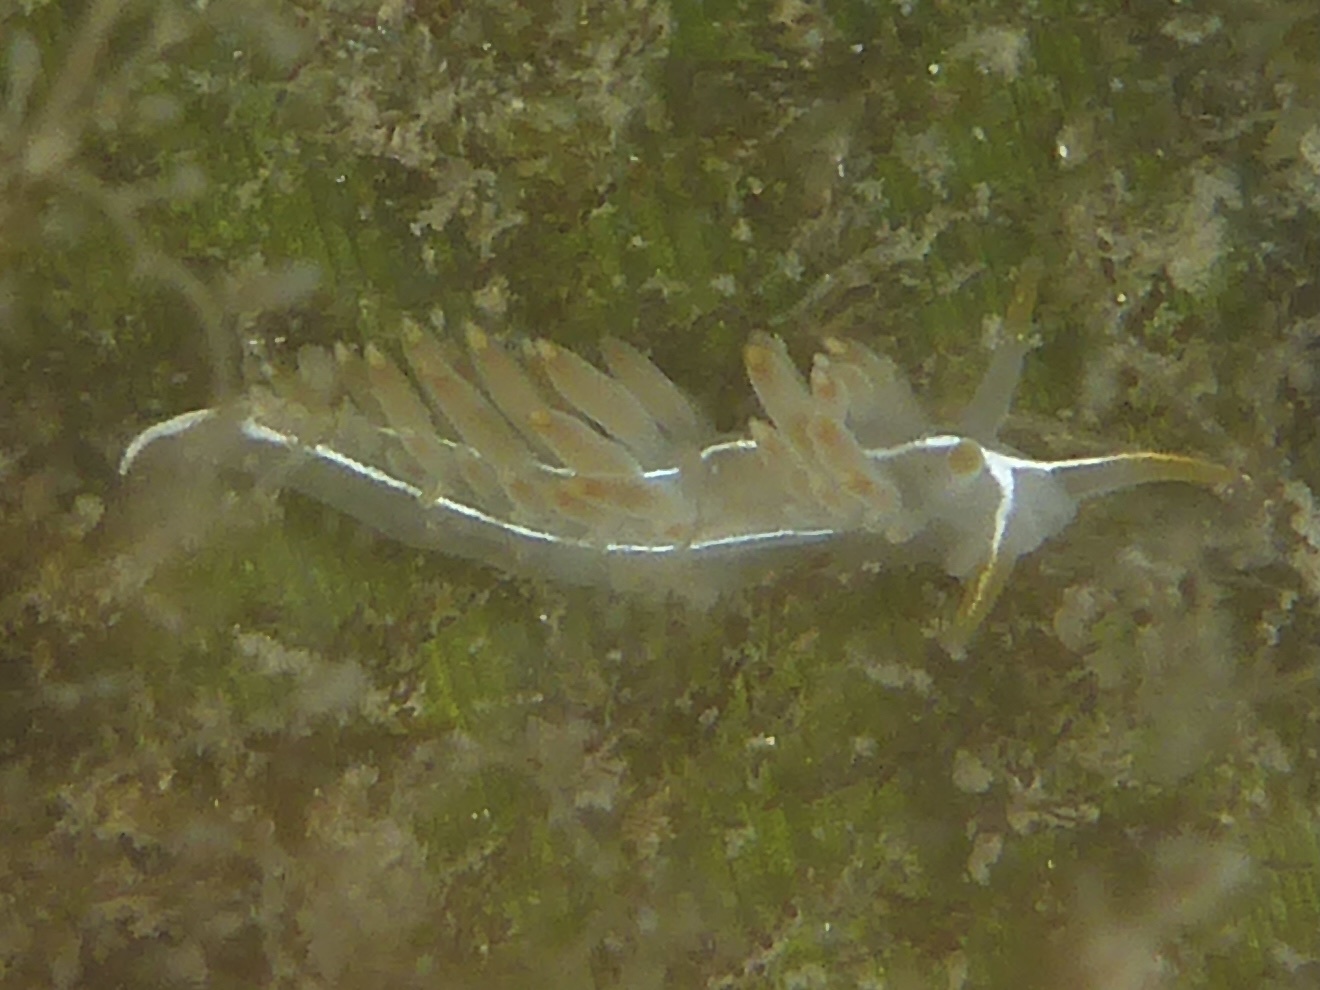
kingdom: Animalia
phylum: Mollusca
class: Gastropoda
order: Nudibranchia
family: Coryphellidae
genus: Coryphella
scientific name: Coryphella trilineata
